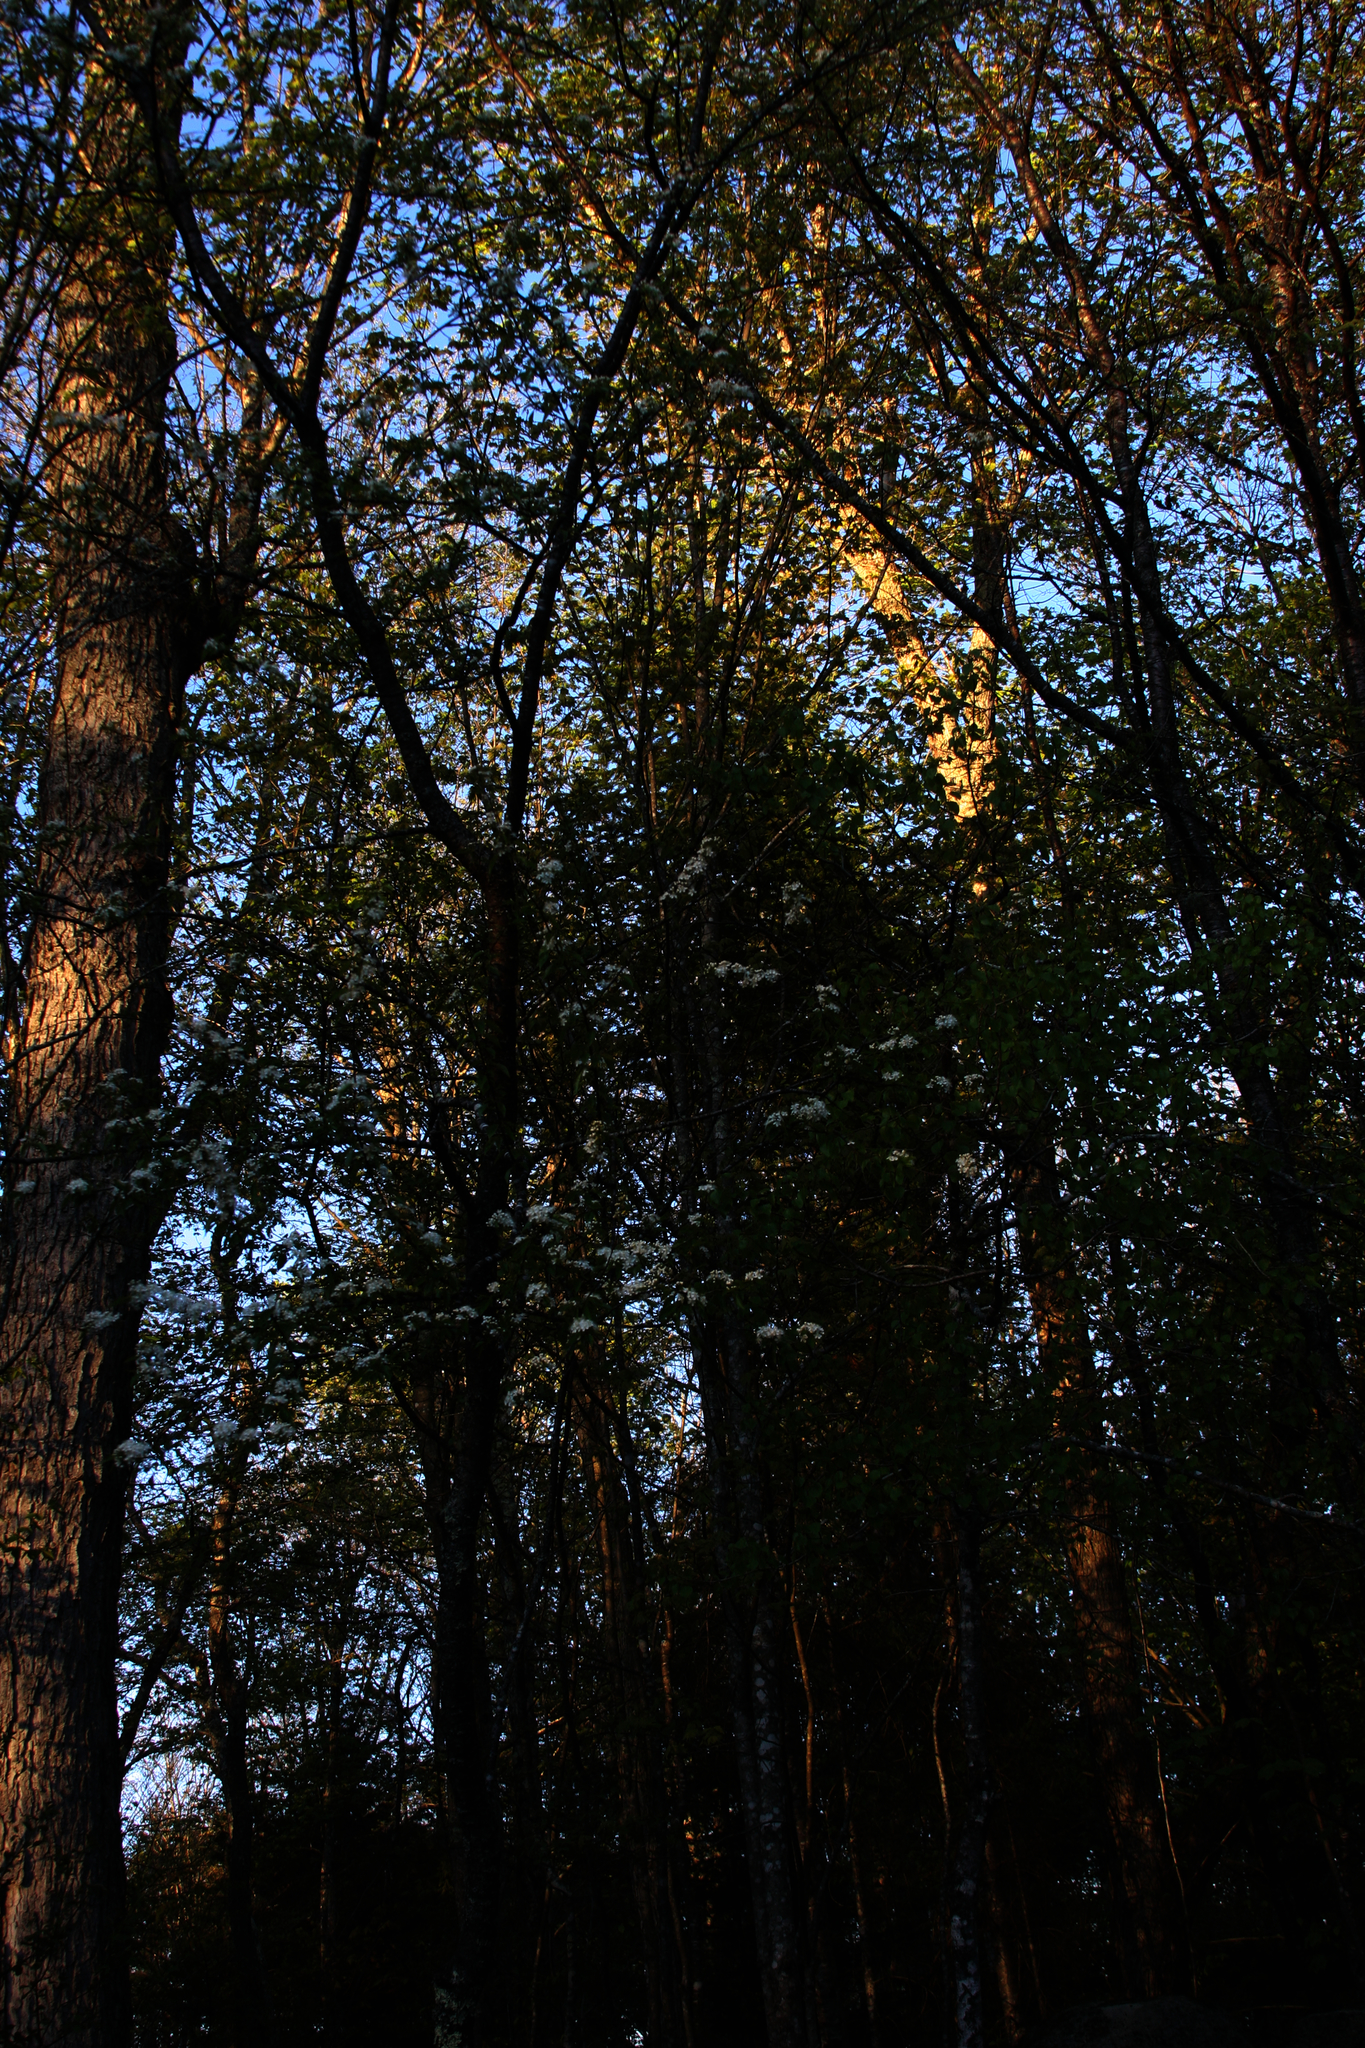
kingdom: Plantae
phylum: Tracheophyta
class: Magnoliopsida
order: Rosales
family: Rosaceae
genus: Prunus
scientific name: Prunus pensylvanica
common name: Pin cherry
